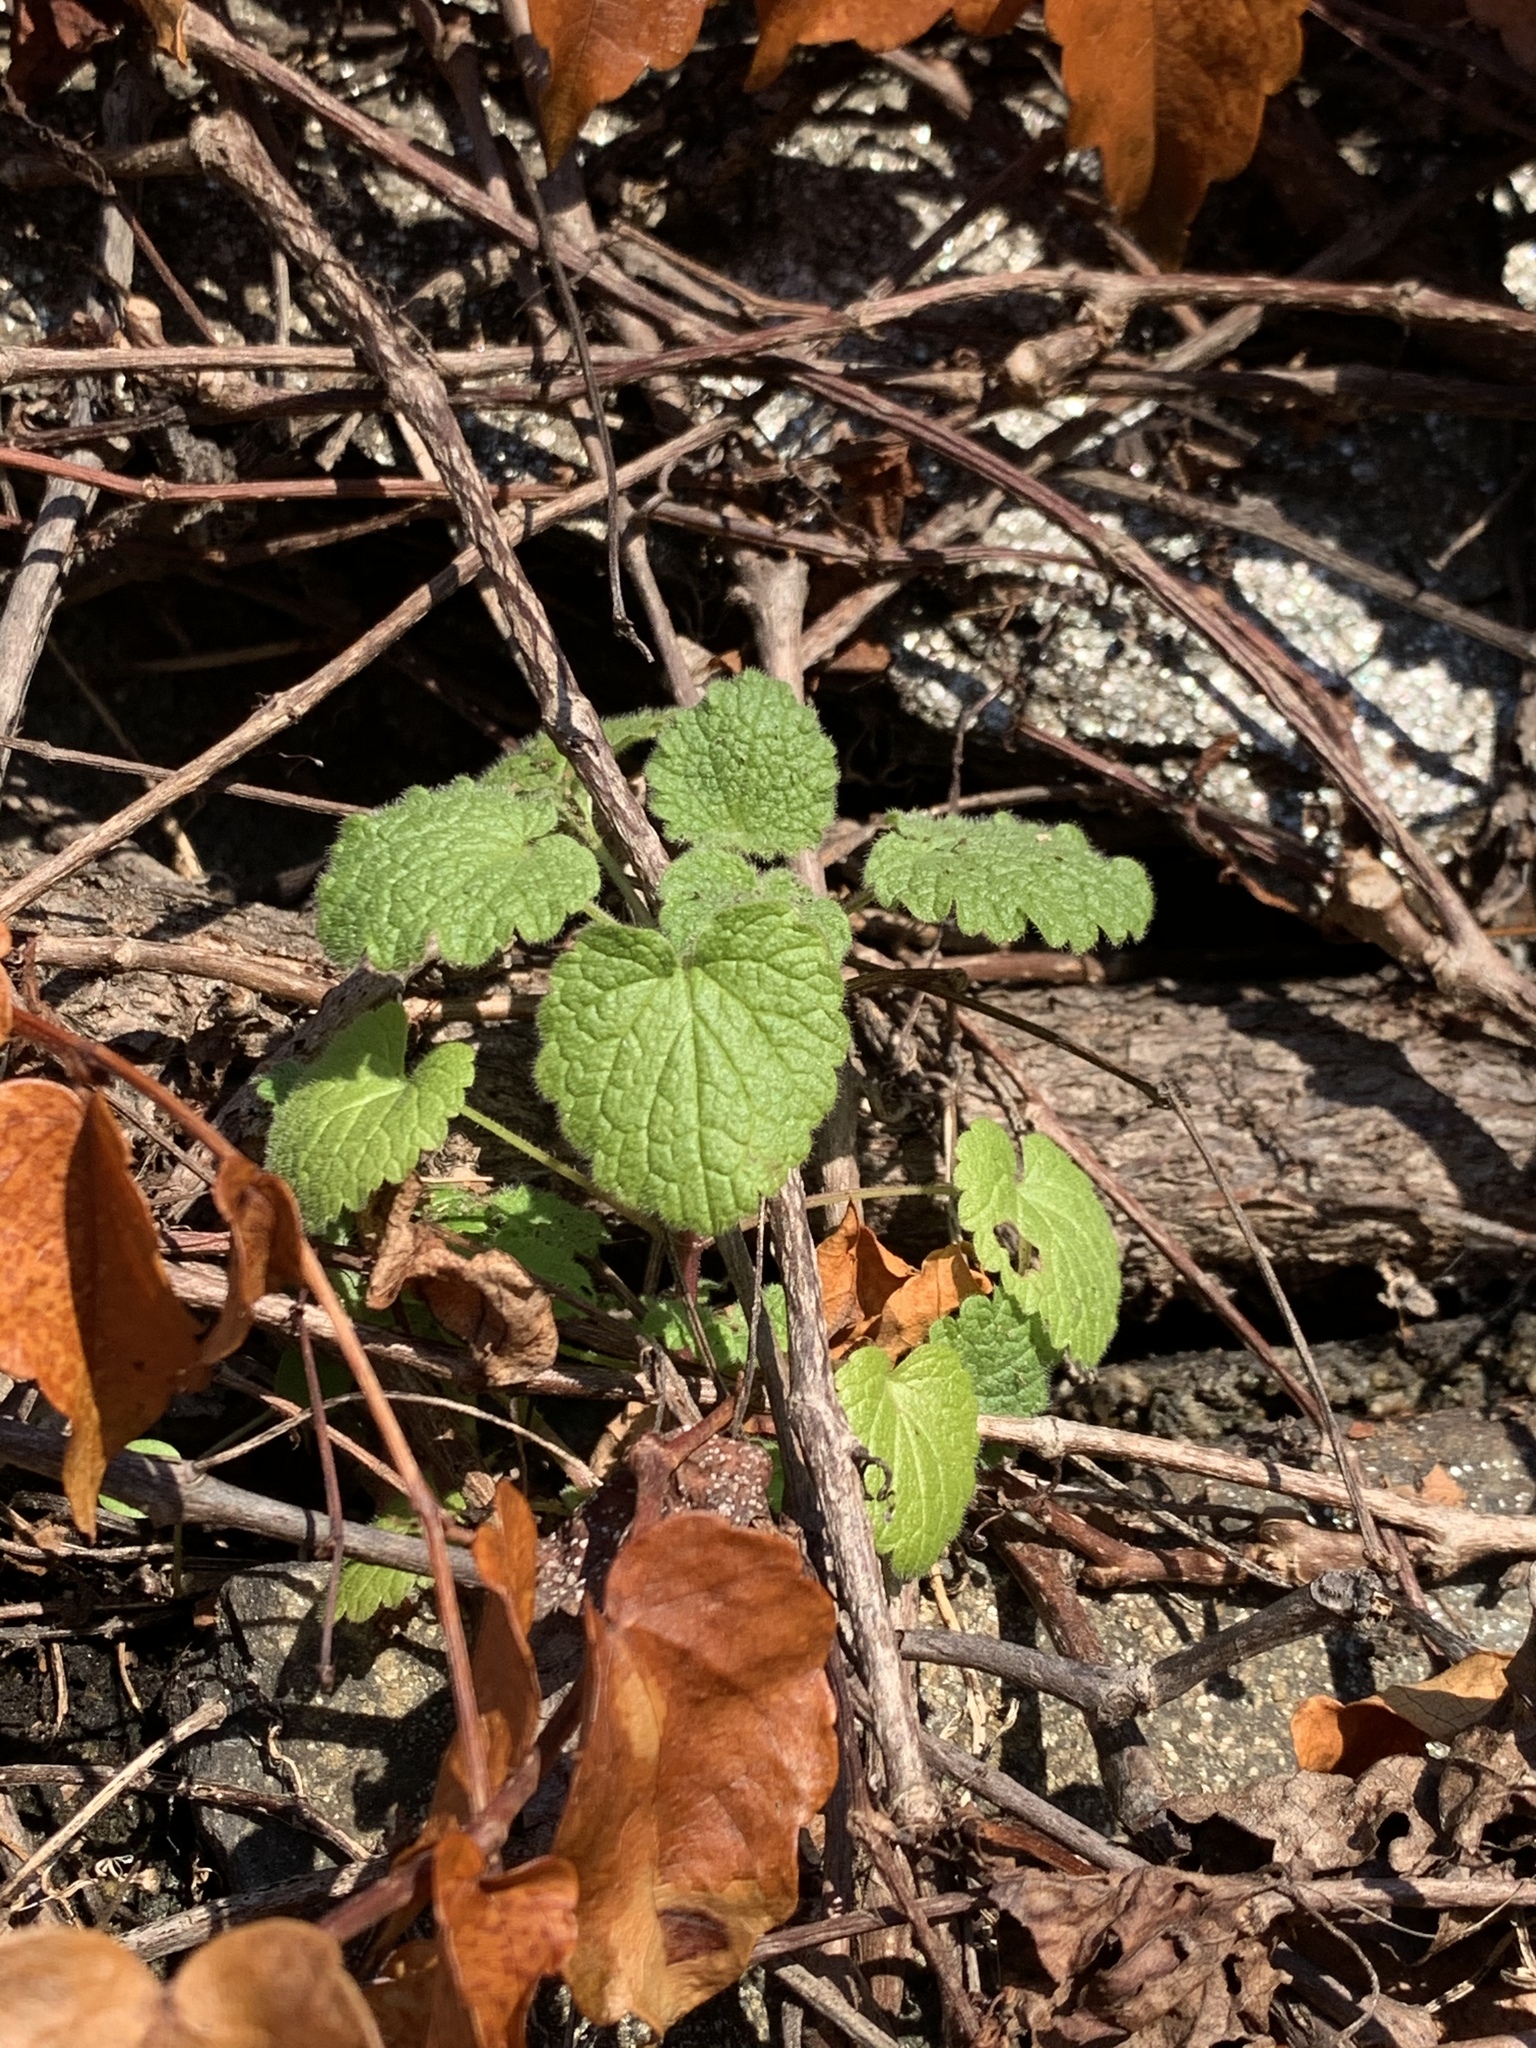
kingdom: Plantae
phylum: Tracheophyta
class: Magnoliopsida
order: Lamiales
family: Lamiaceae
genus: Lamium
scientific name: Lamium purpureum
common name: Red dead-nettle
